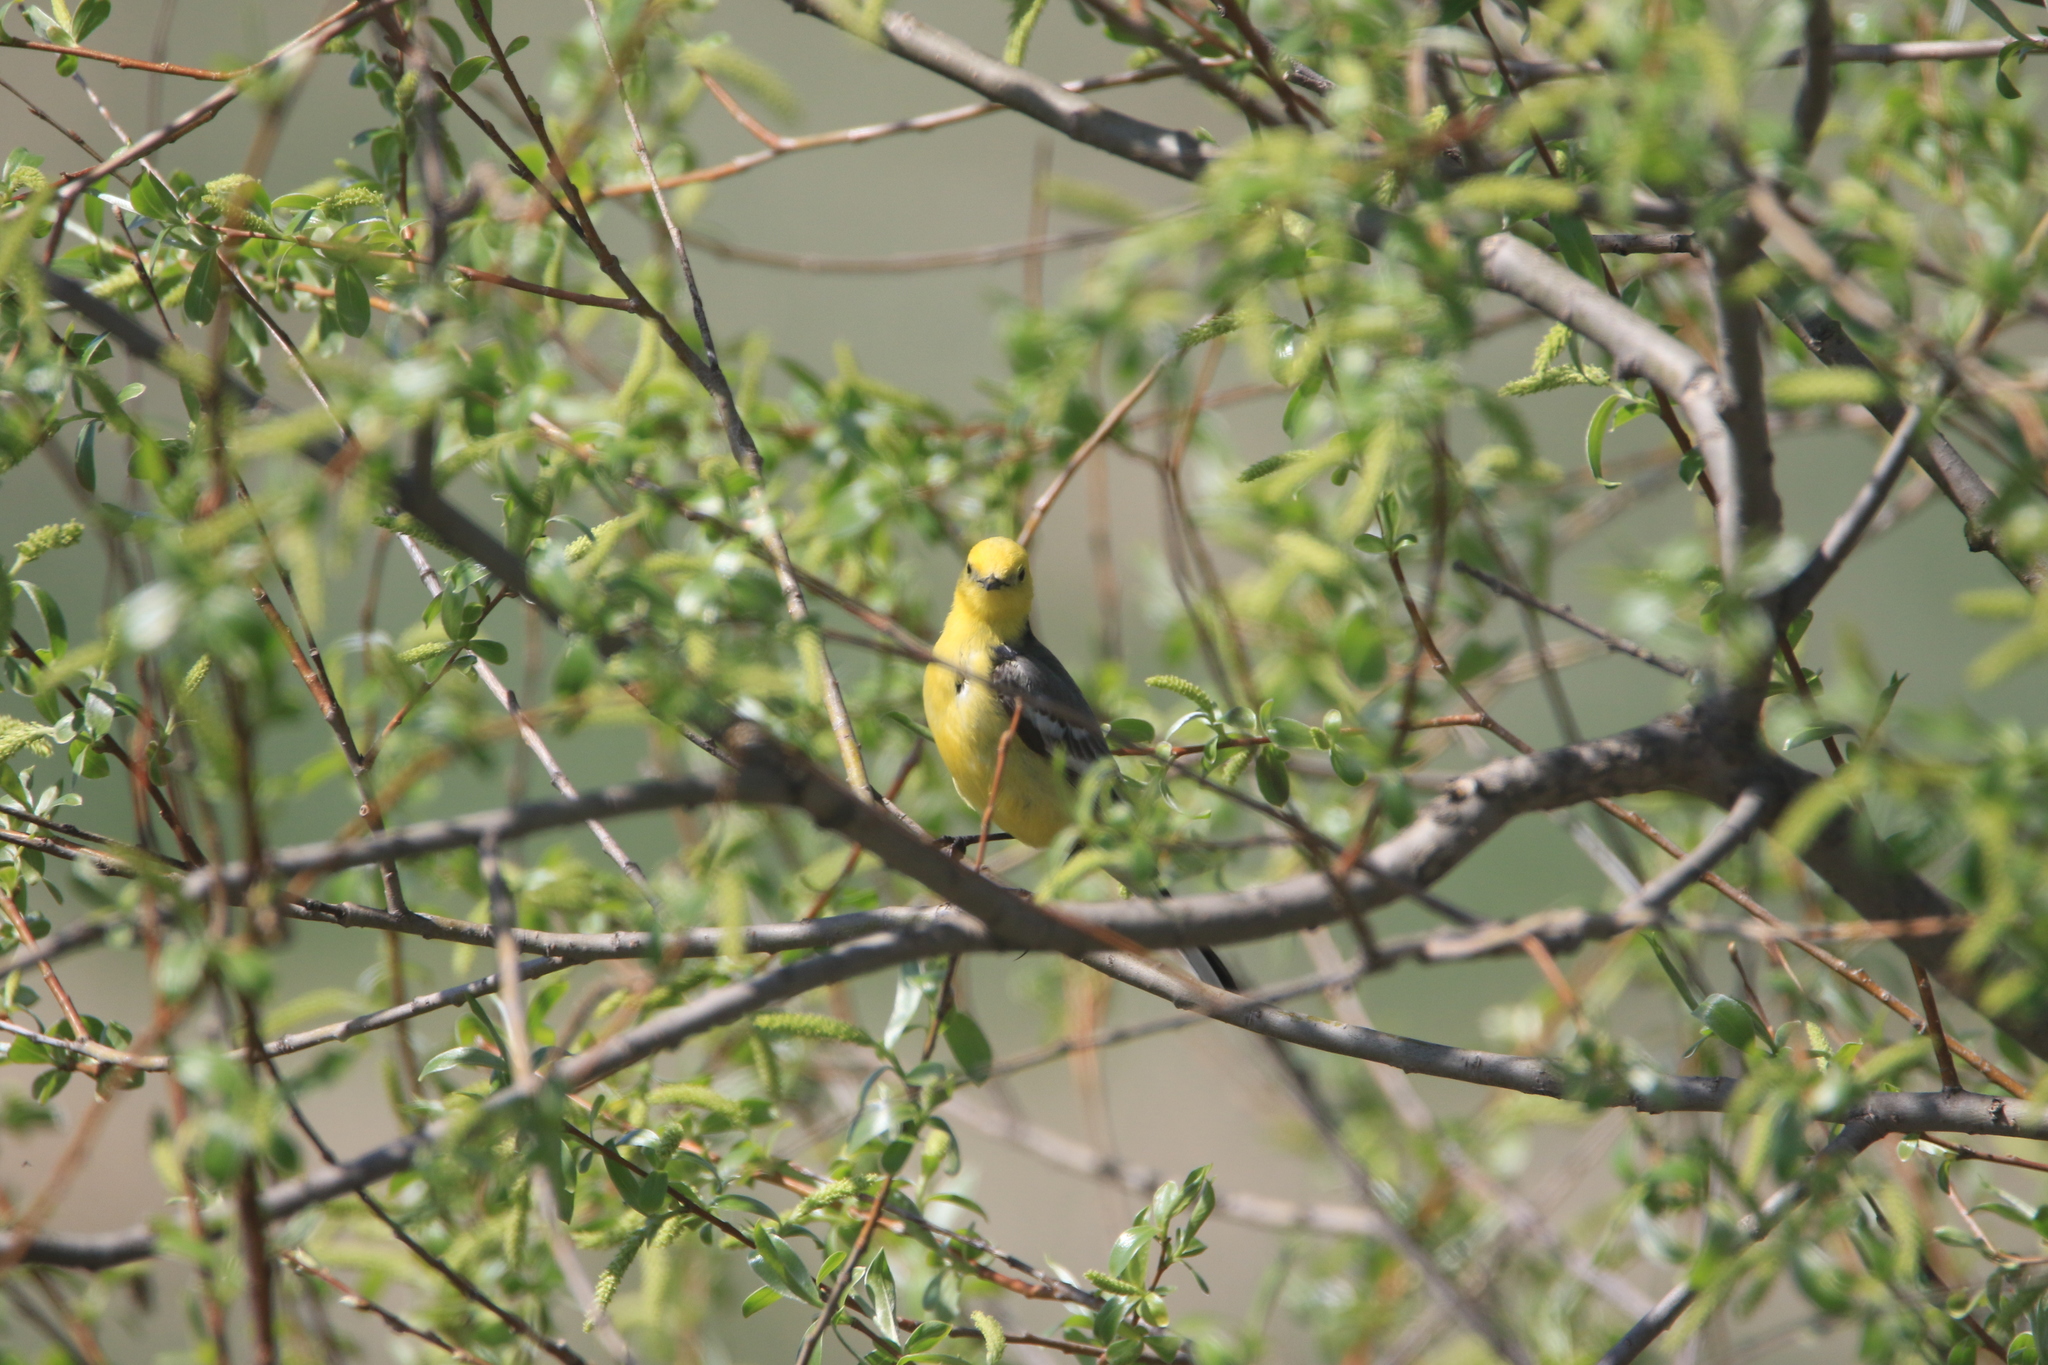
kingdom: Animalia
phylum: Chordata
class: Aves
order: Passeriformes
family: Motacillidae
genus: Motacilla
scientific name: Motacilla citreola
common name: Citrine wagtail
